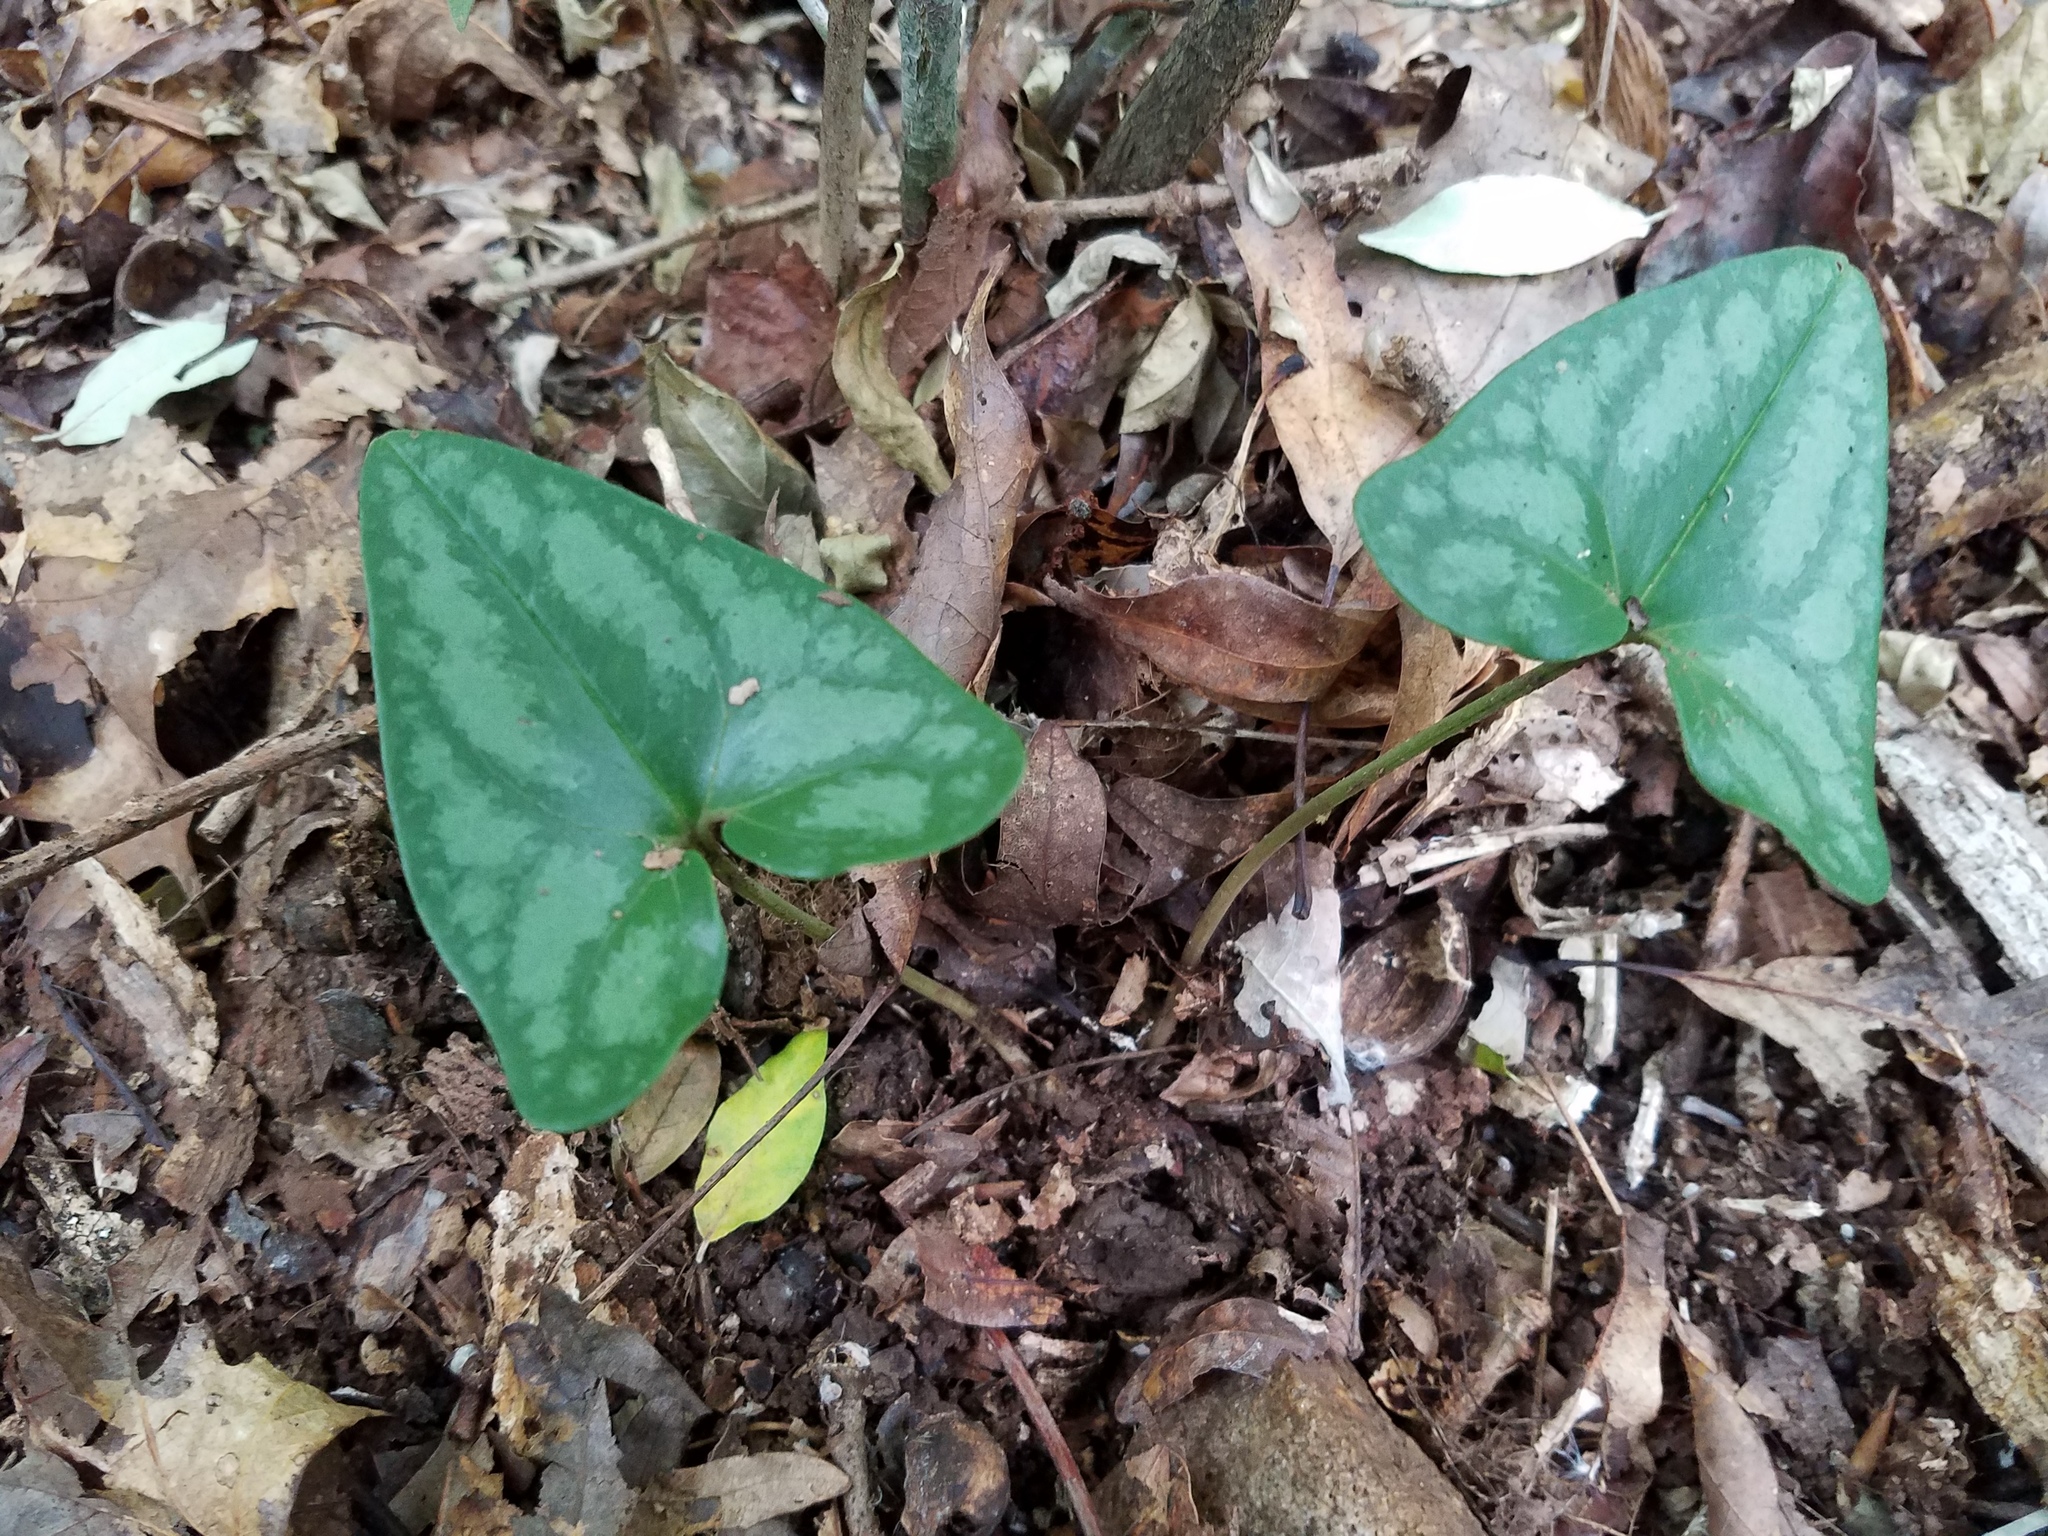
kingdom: Plantae
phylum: Tracheophyta
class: Magnoliopsida
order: Piperales
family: Aristolochiaceae
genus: Hexastylis
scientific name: Hexastylis arifolia
